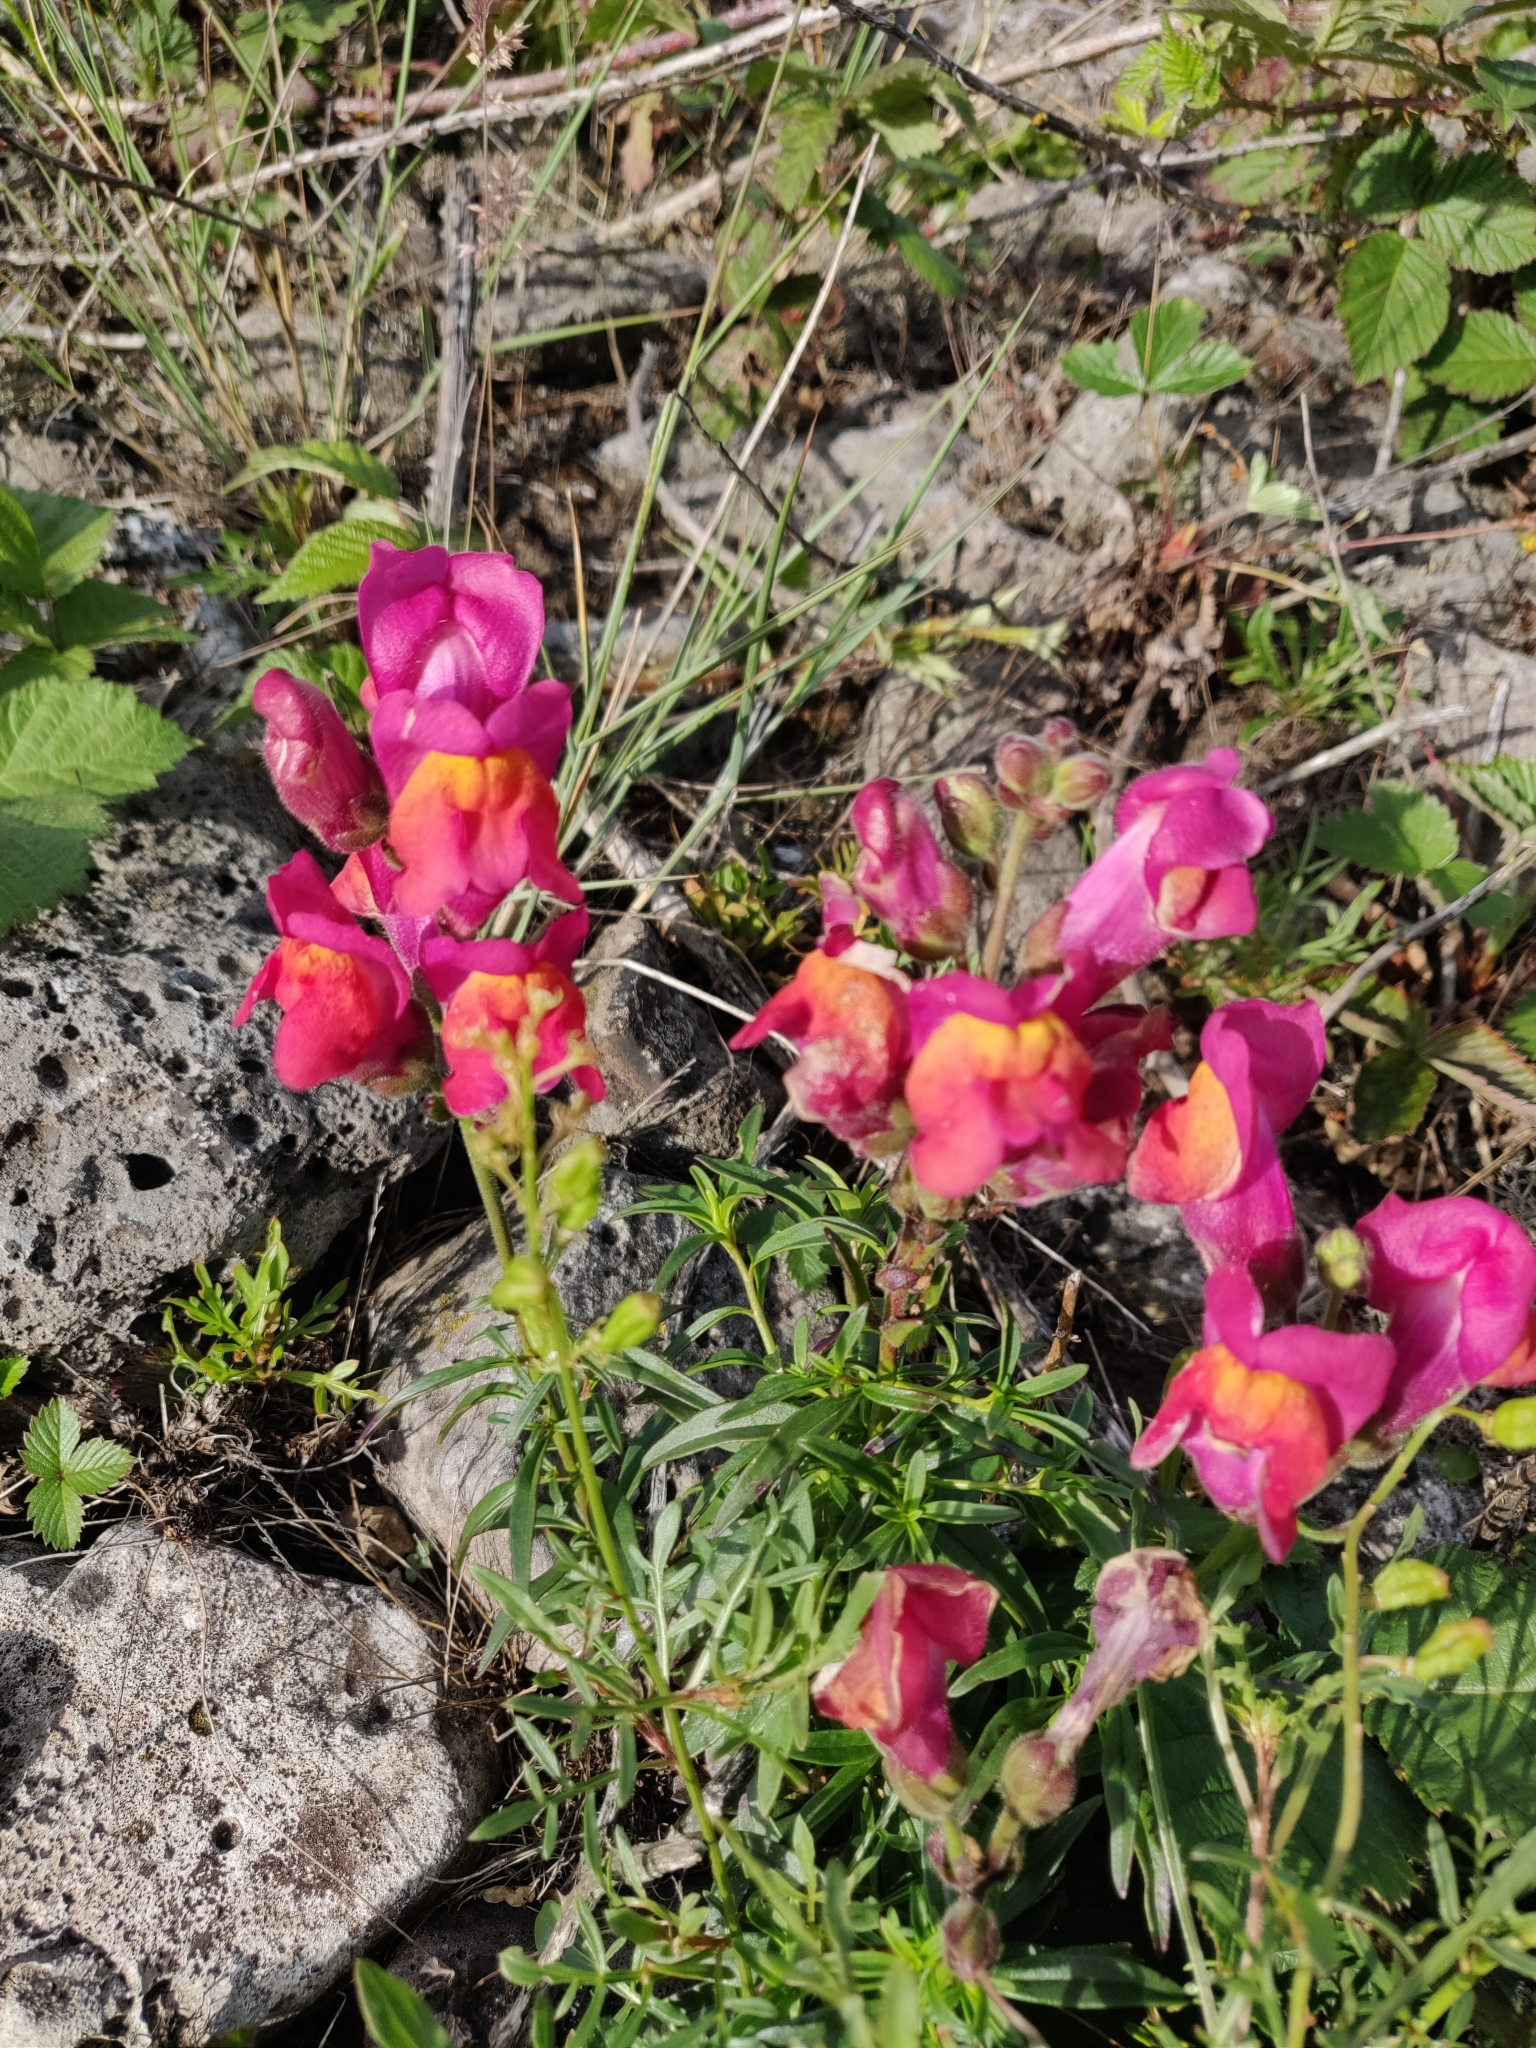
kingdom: Plantae
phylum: Tracheophyta
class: Magnoliopsida
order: Lamiales
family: Plantaginaceae
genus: Antirrhinum
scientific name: Antirrhinum majus
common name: Snapdragon
